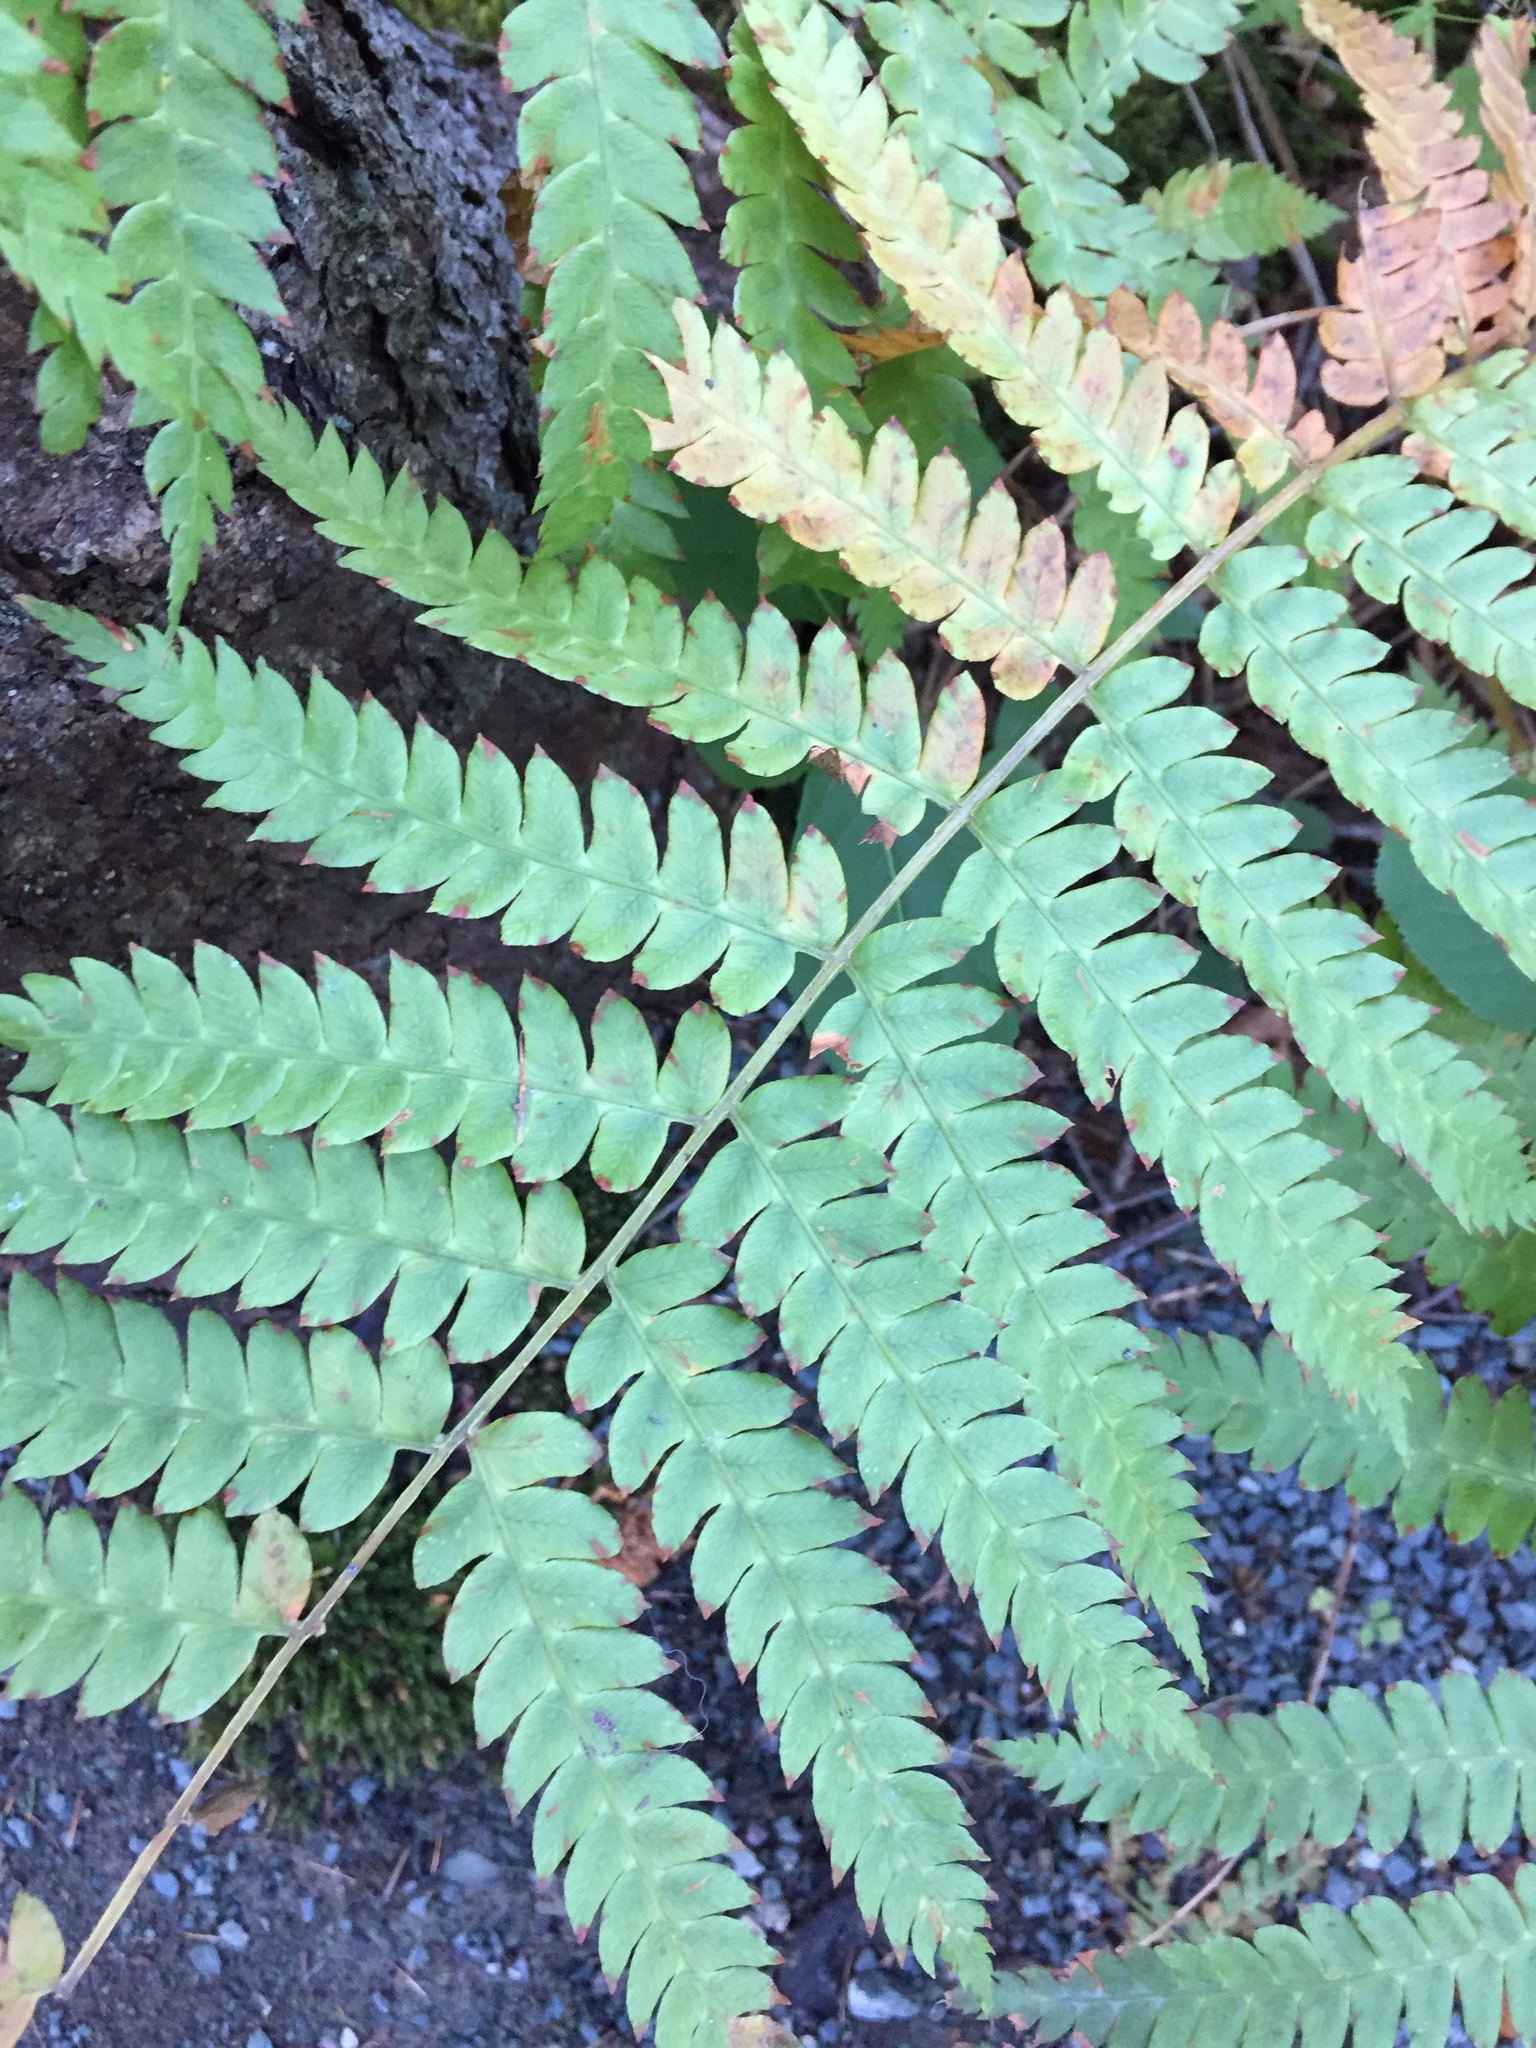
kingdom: Plantae
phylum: Tracheophyta
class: Polypodiopsida
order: Osmundales
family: Osmundaceae
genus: Osmundastrum
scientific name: Osmundastrum cinnamomeum
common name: Cinnamon fern
